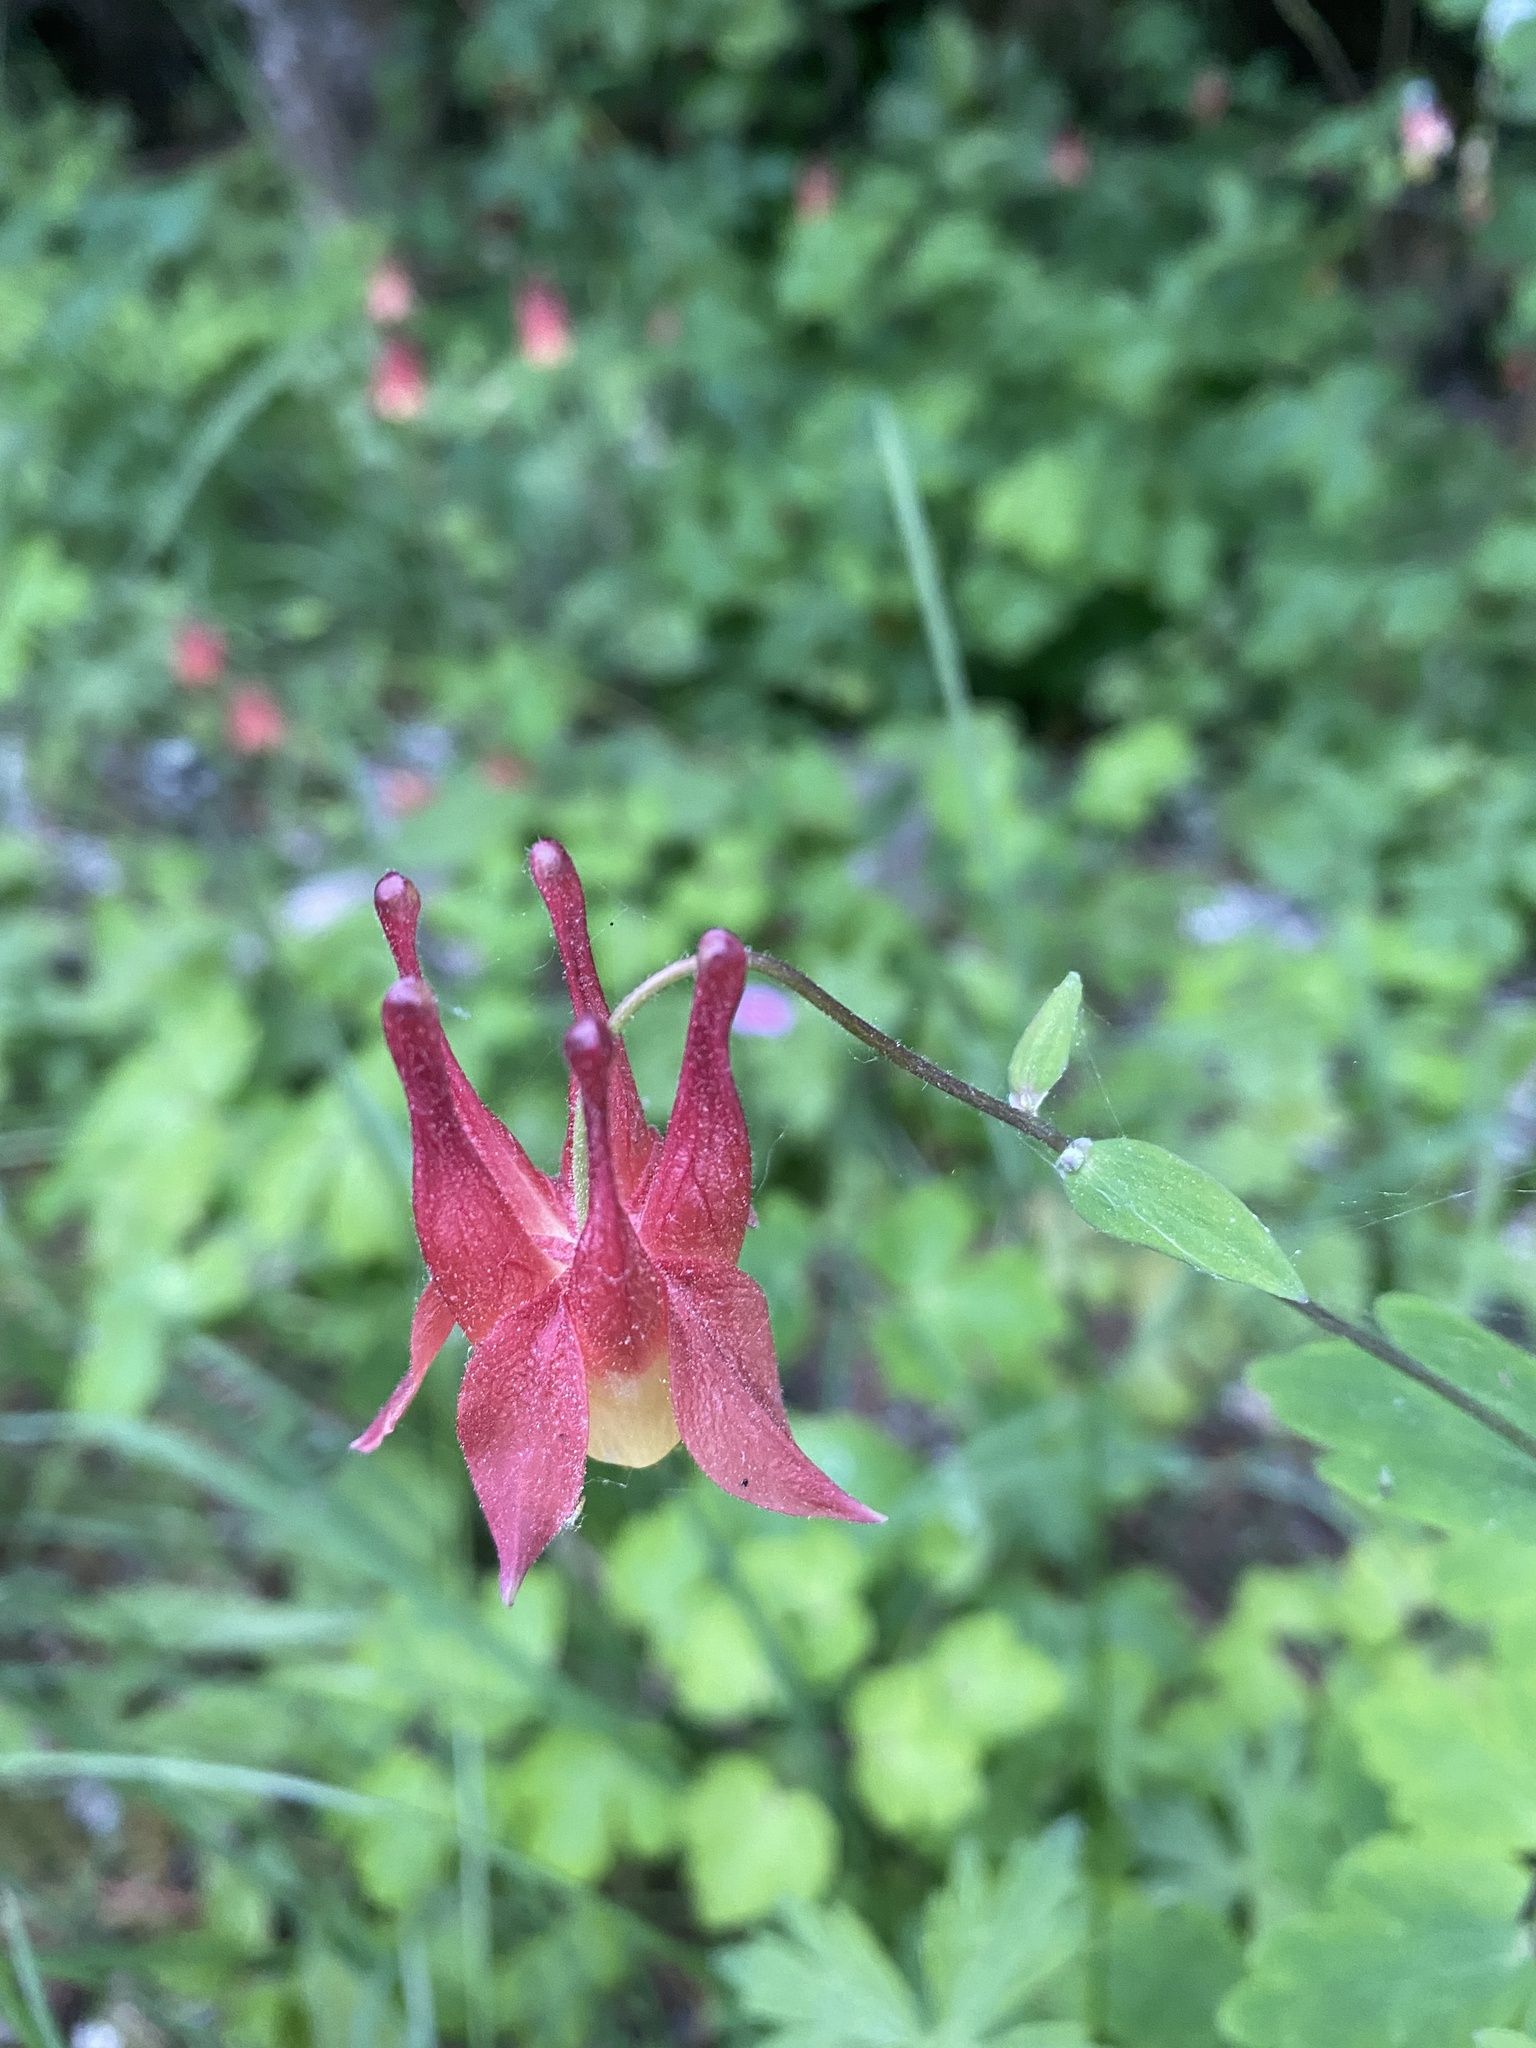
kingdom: Plantae
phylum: Tracheophyta
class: Magnoliopsida
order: Ranunculales
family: Ranunculaceae
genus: Aquilegia
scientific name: Aquilegia canadensis
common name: American columbine
